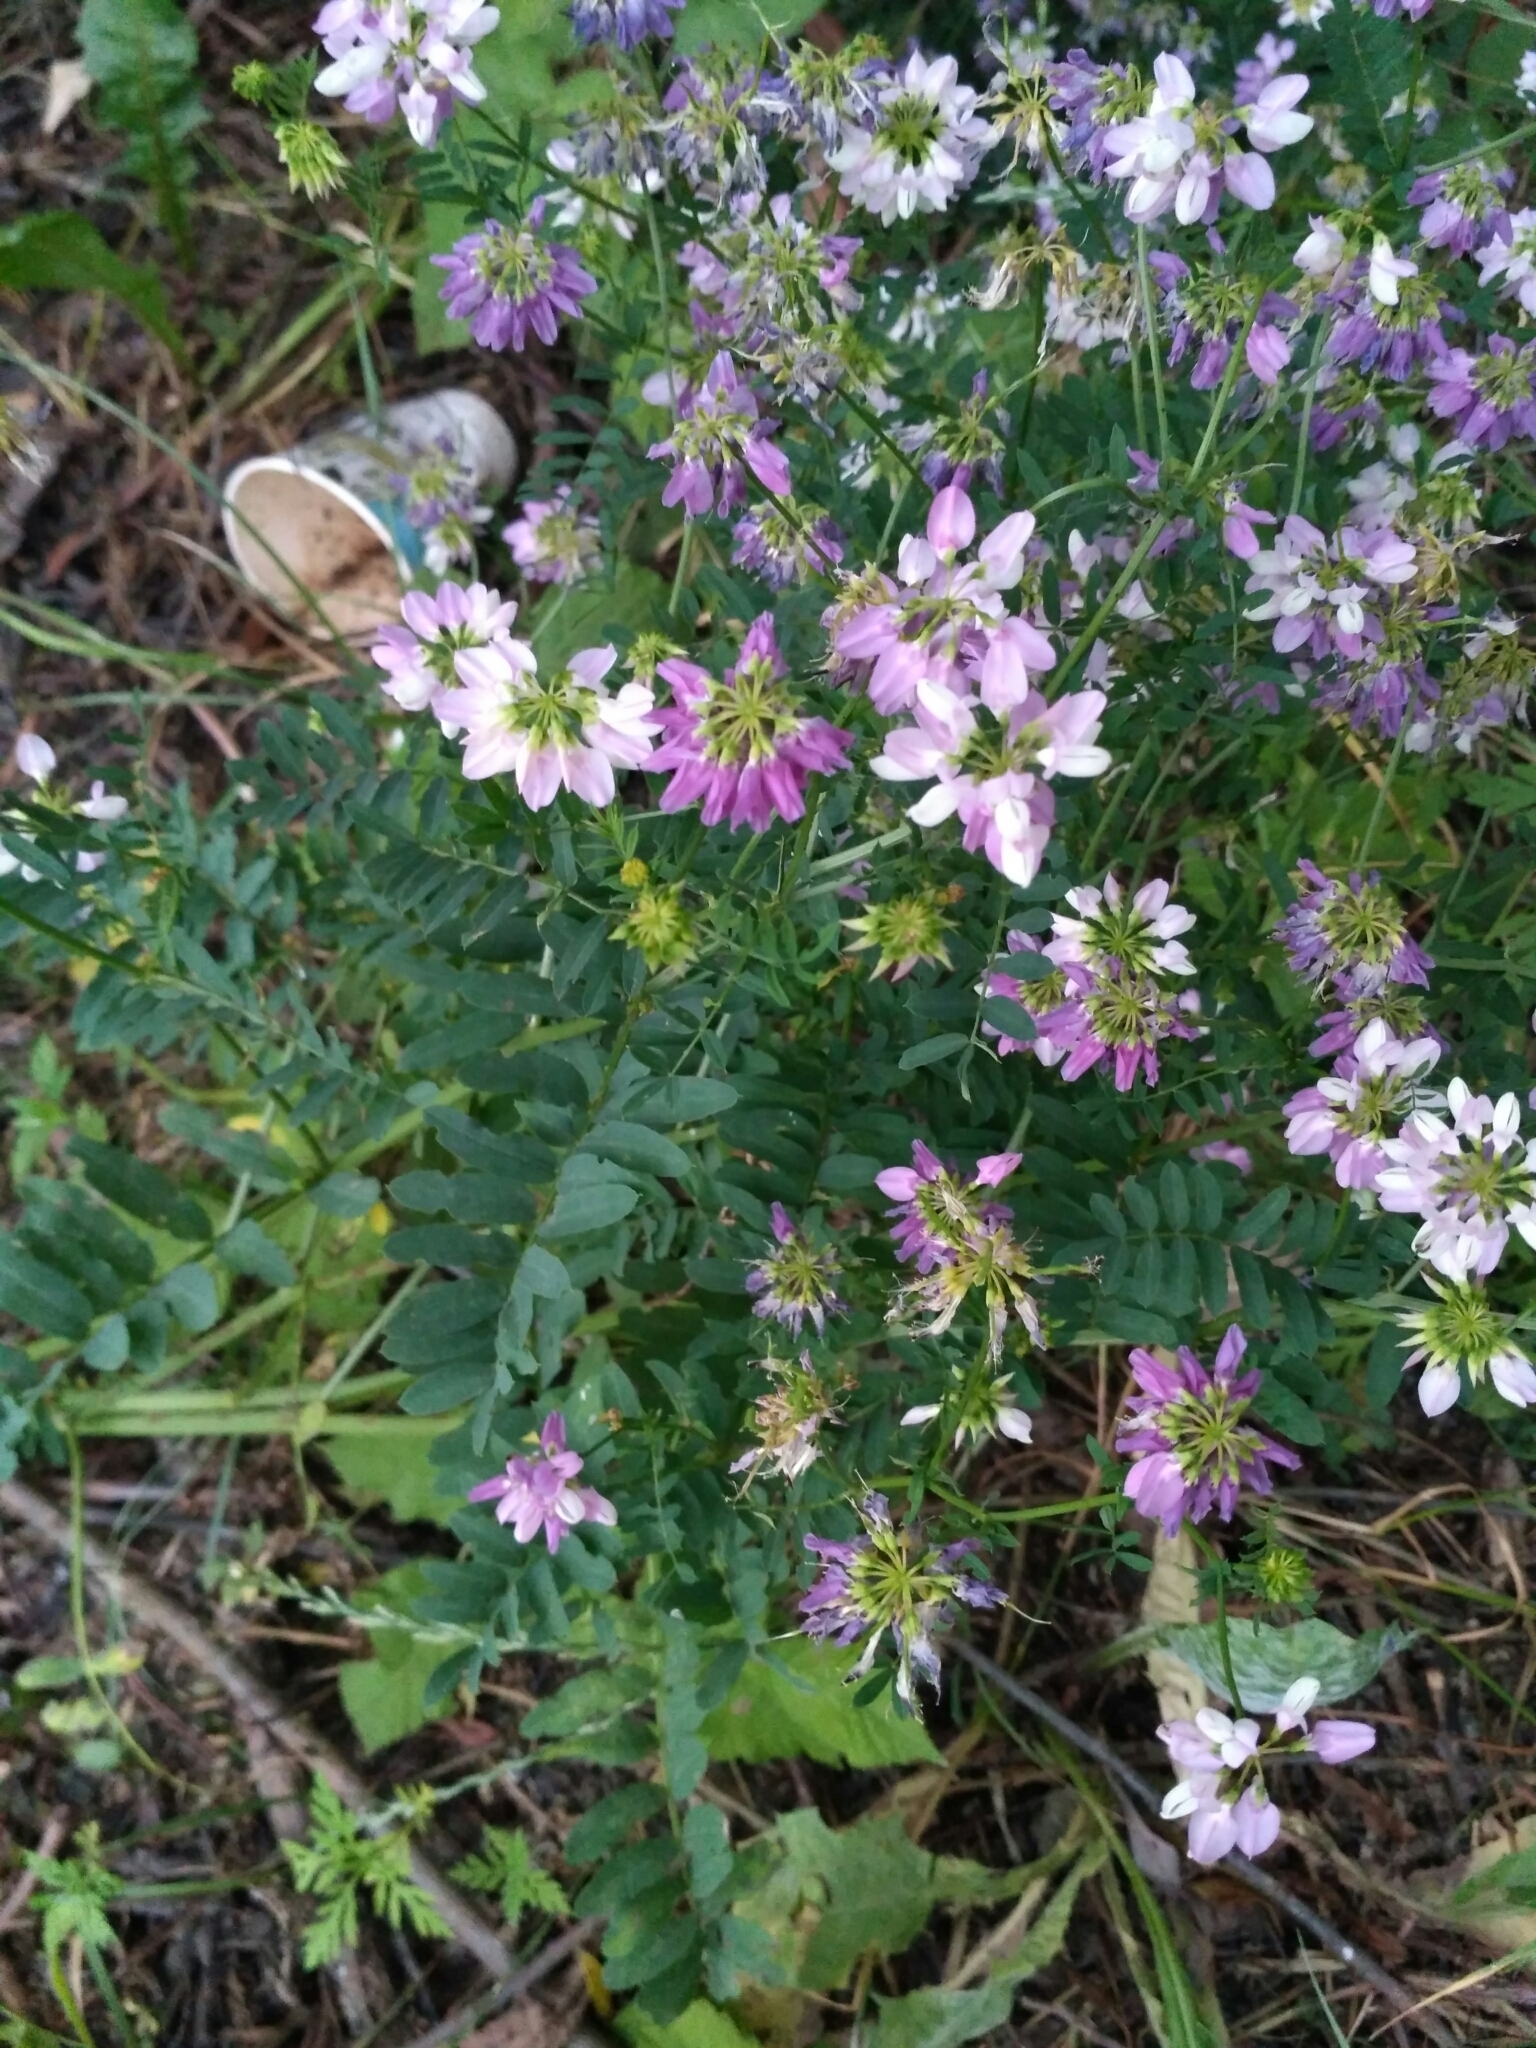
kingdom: Plantae
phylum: Tracheophyta
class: Magnoliopsida
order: Fabales
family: Fabaceae
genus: Coronilla
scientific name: Coronilla varia
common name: Crownvetch
